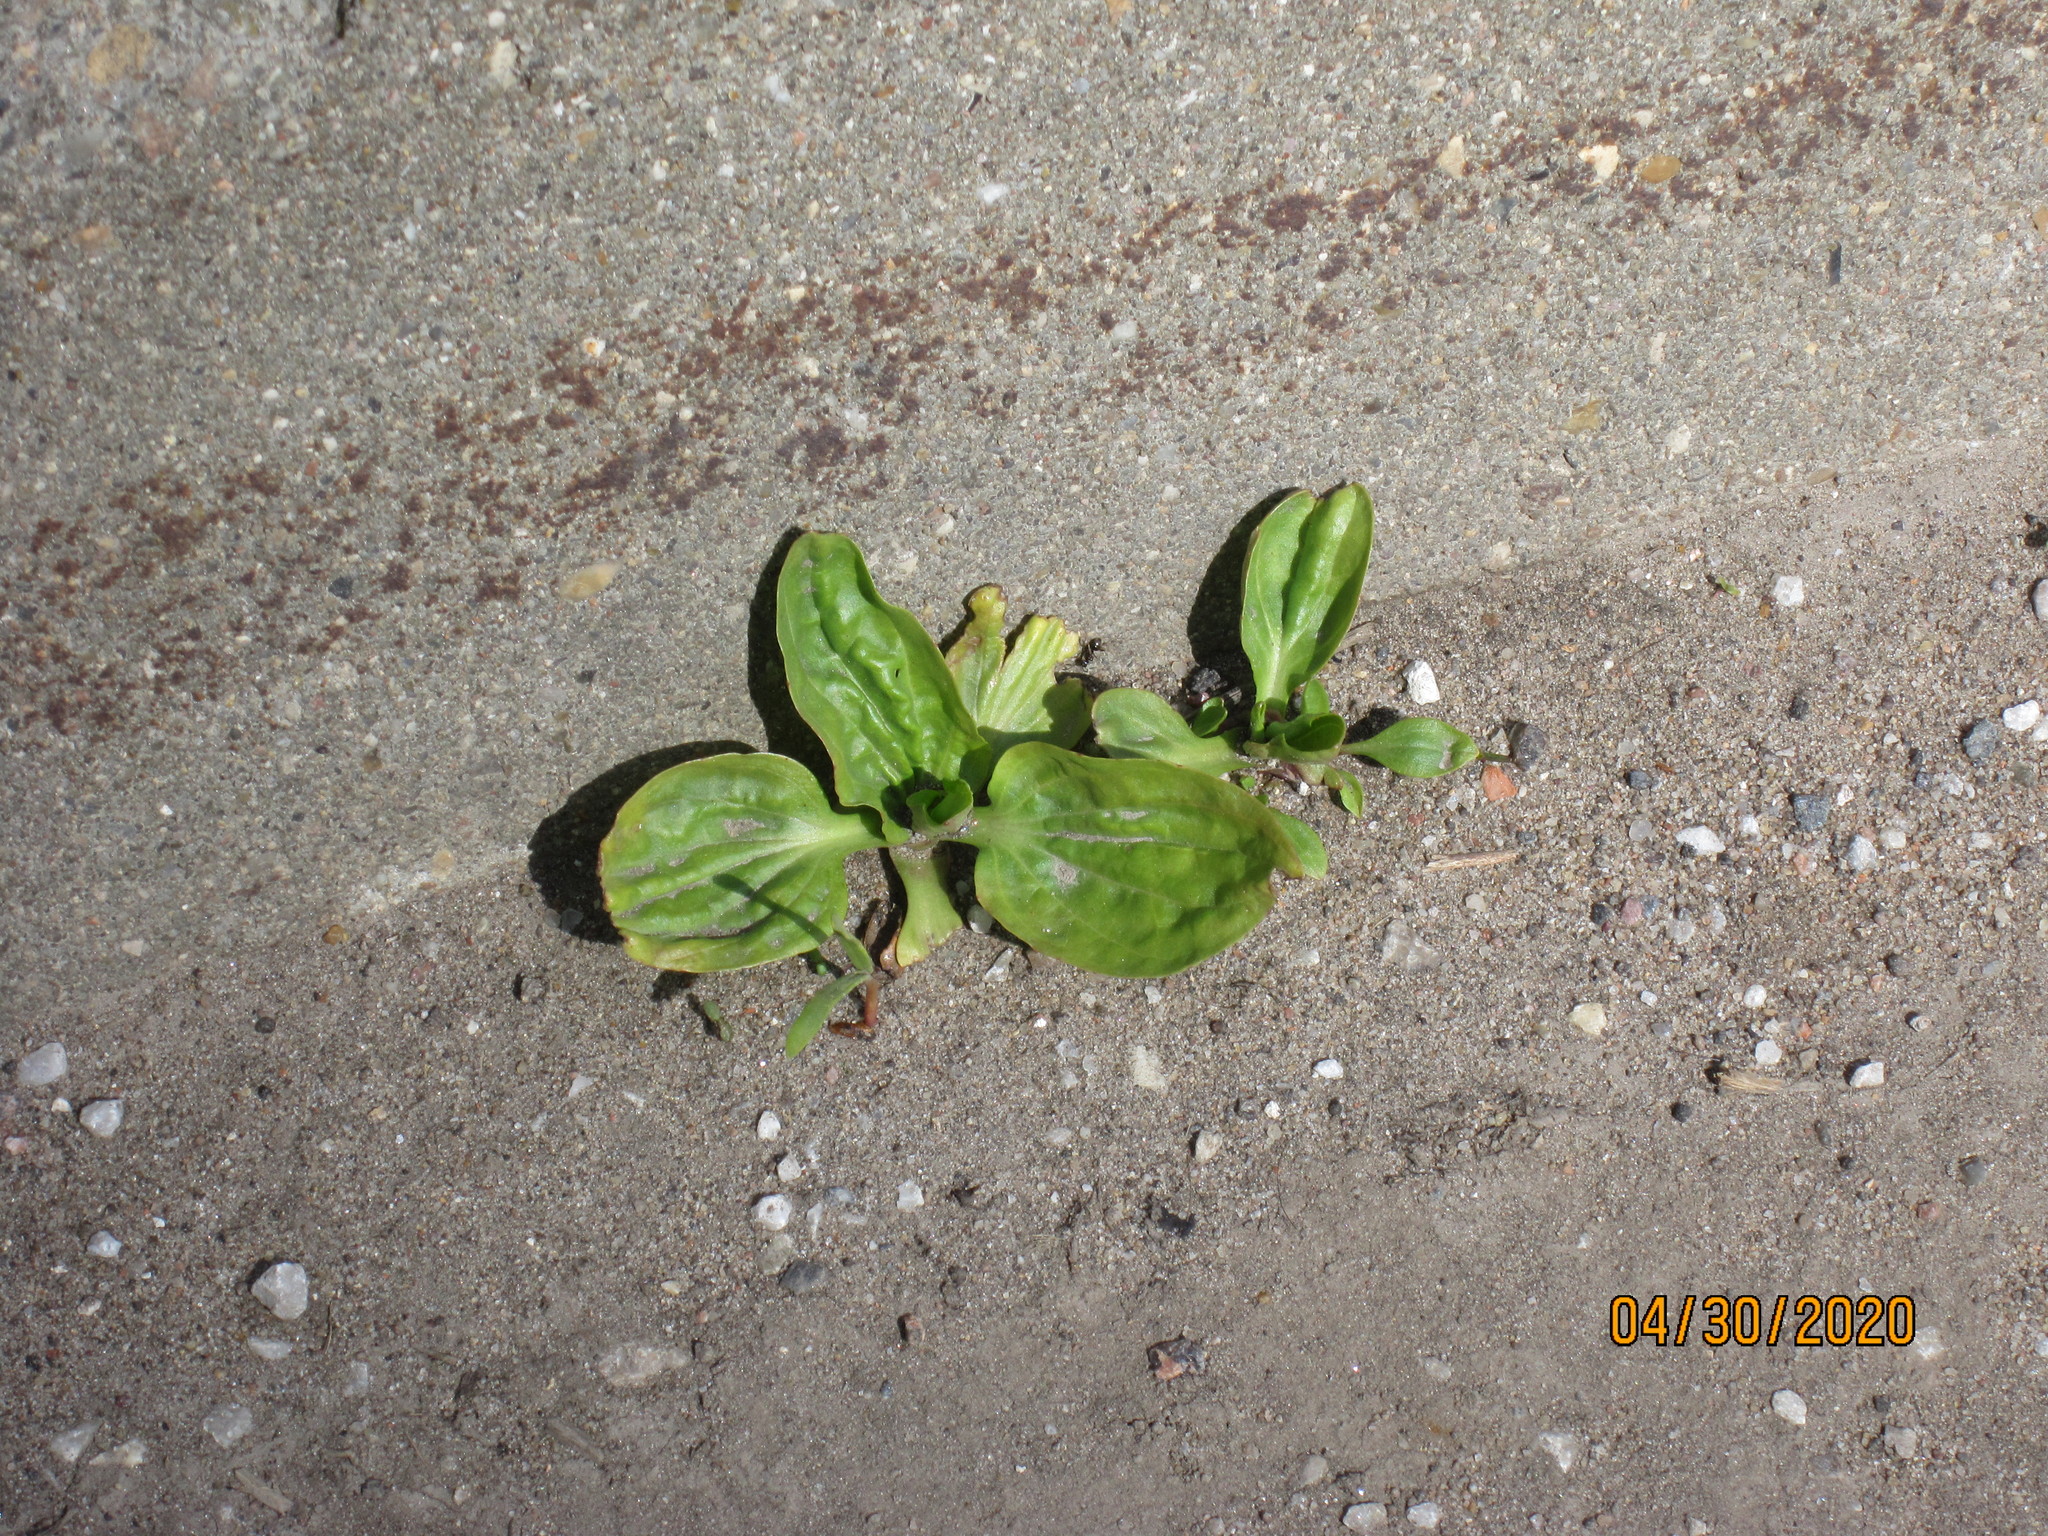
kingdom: Plantae
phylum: Tracheophyta
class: Magnoliopsida
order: Lamiales
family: Plantaginaceae
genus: Plantago
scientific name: Plantago major
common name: Common plantain
